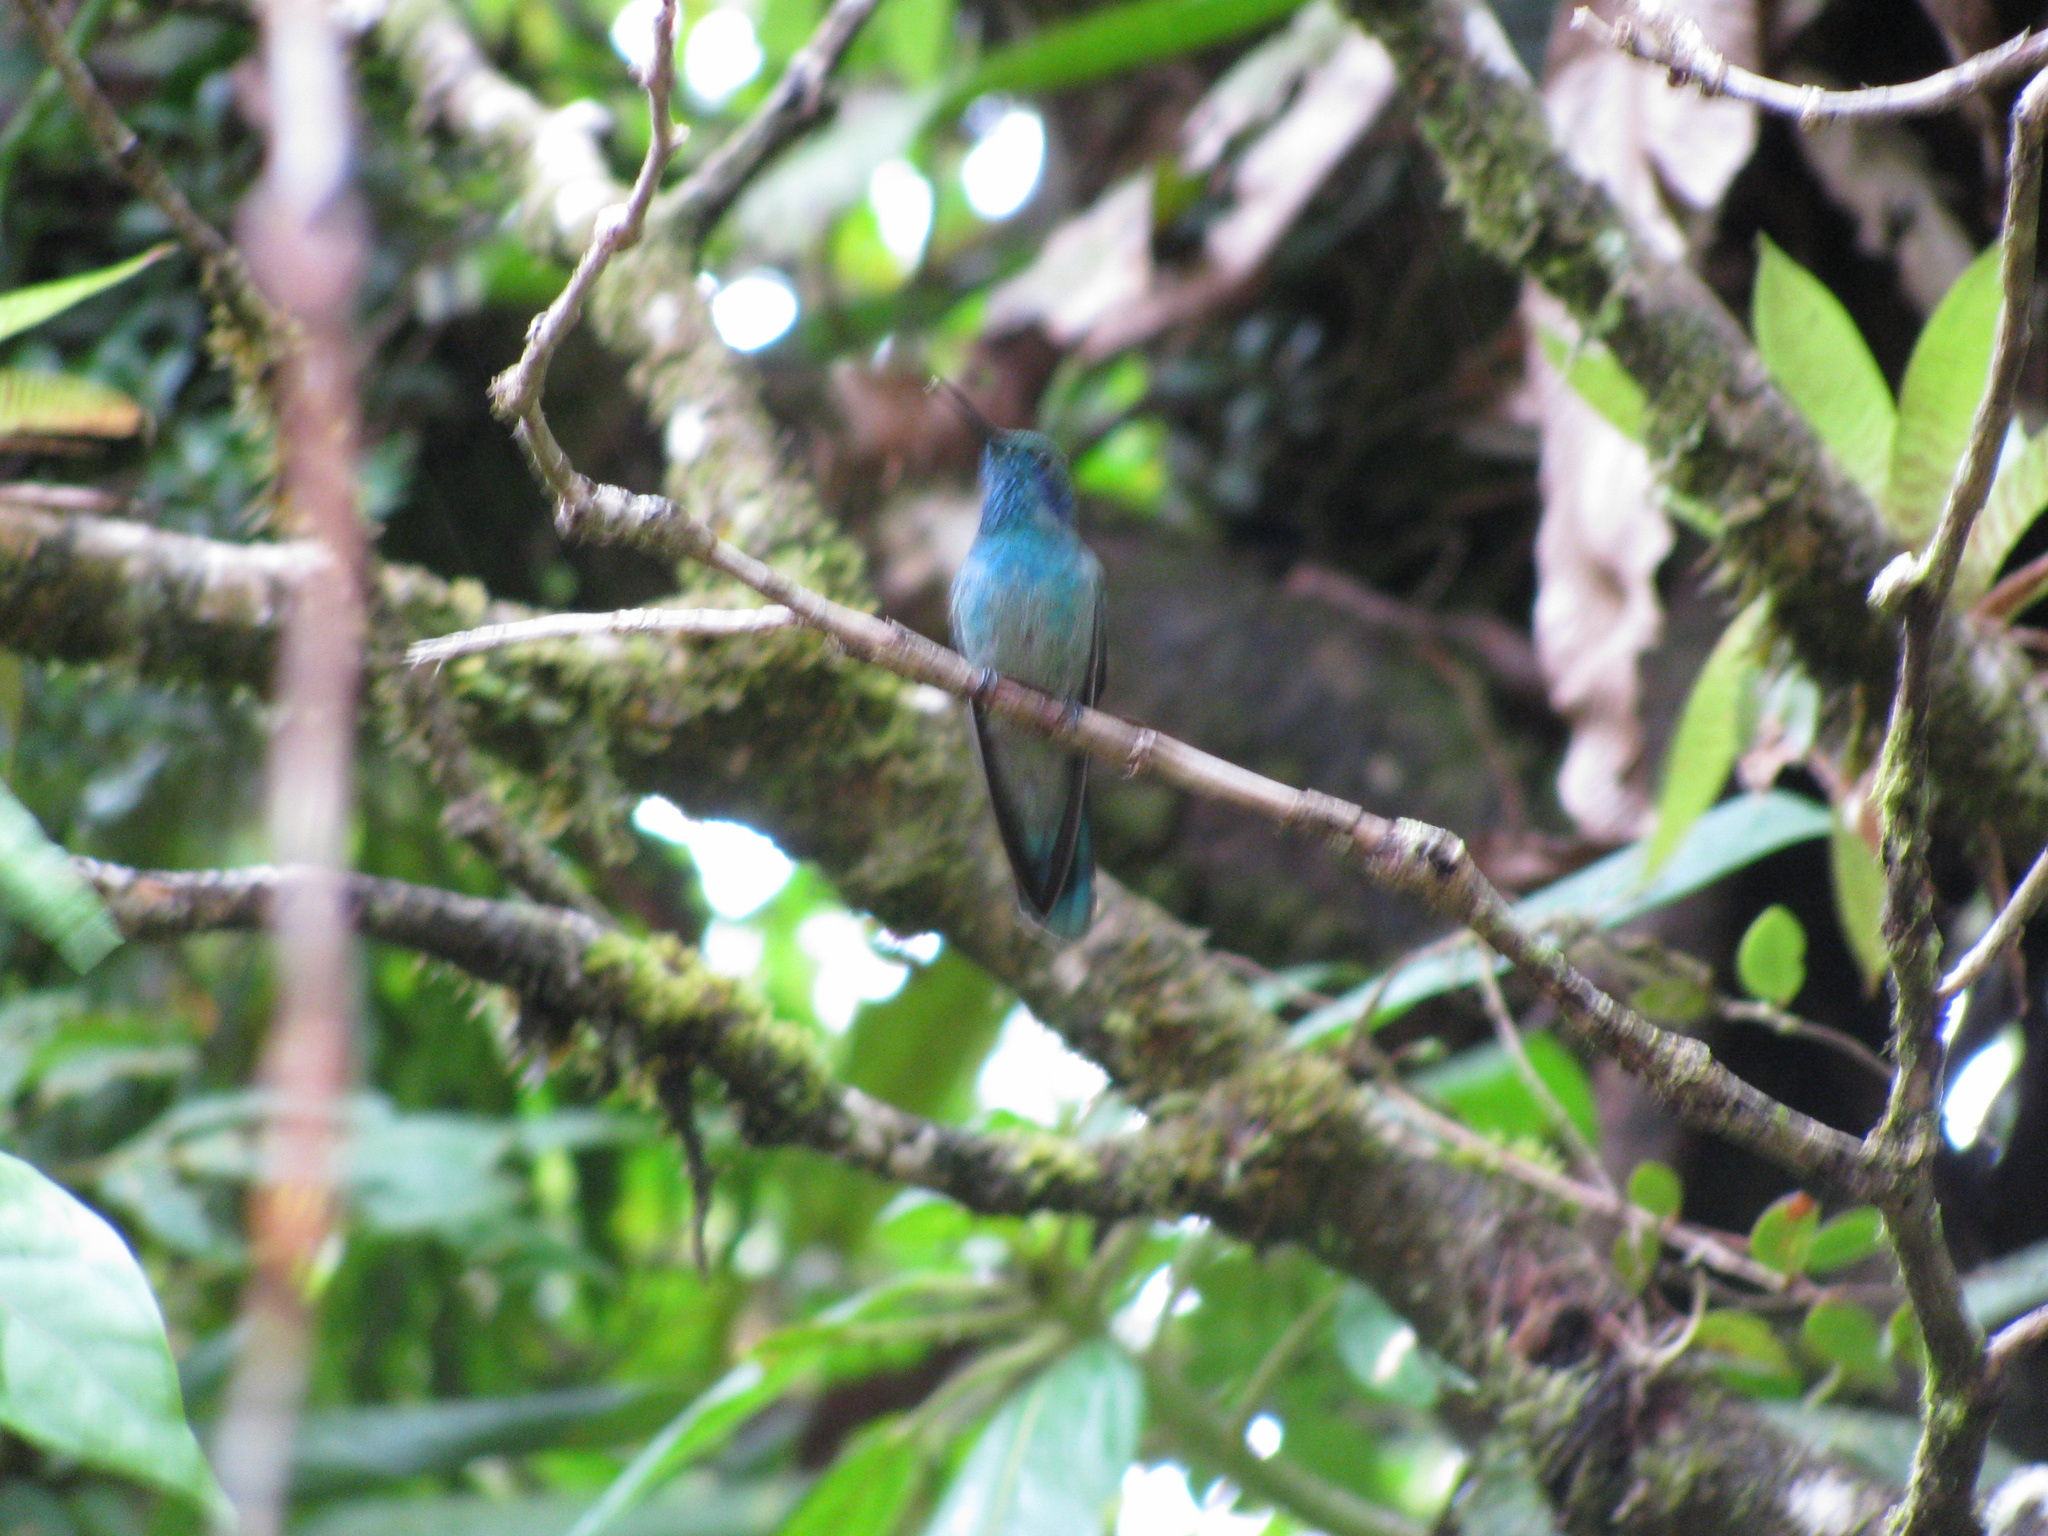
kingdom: Animalia
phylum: Chordata
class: Aves
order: Apodiformes
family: Trochilidae
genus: Colibri
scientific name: Colibri cyanotus
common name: Lesser violetear
